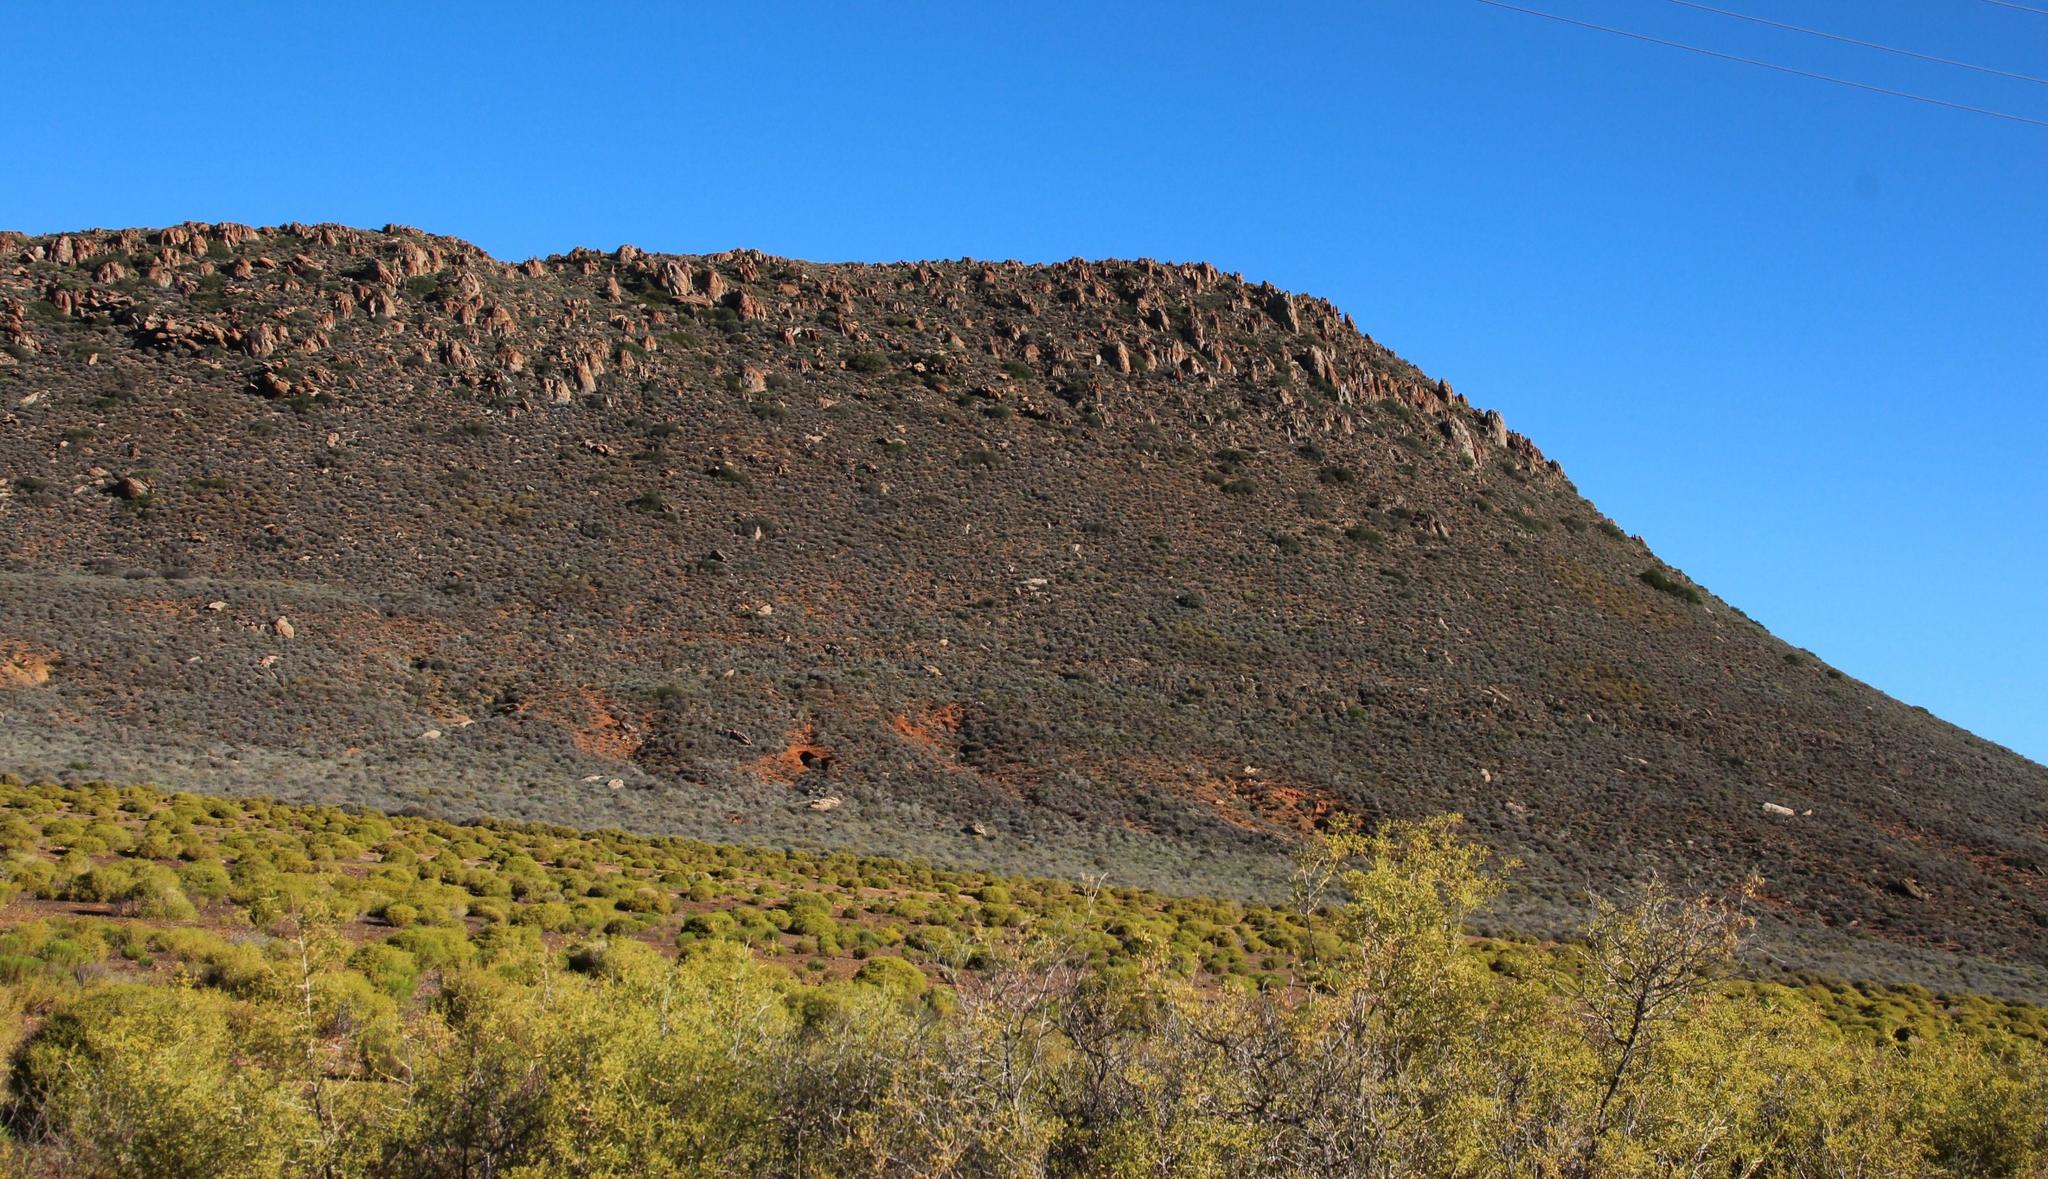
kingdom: Plantae
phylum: Tracheophyta
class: Magnoliopsida
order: Ericales
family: Ebenaceae
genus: Euclea
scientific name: Euclea undulata
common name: Small-leaved guarri
